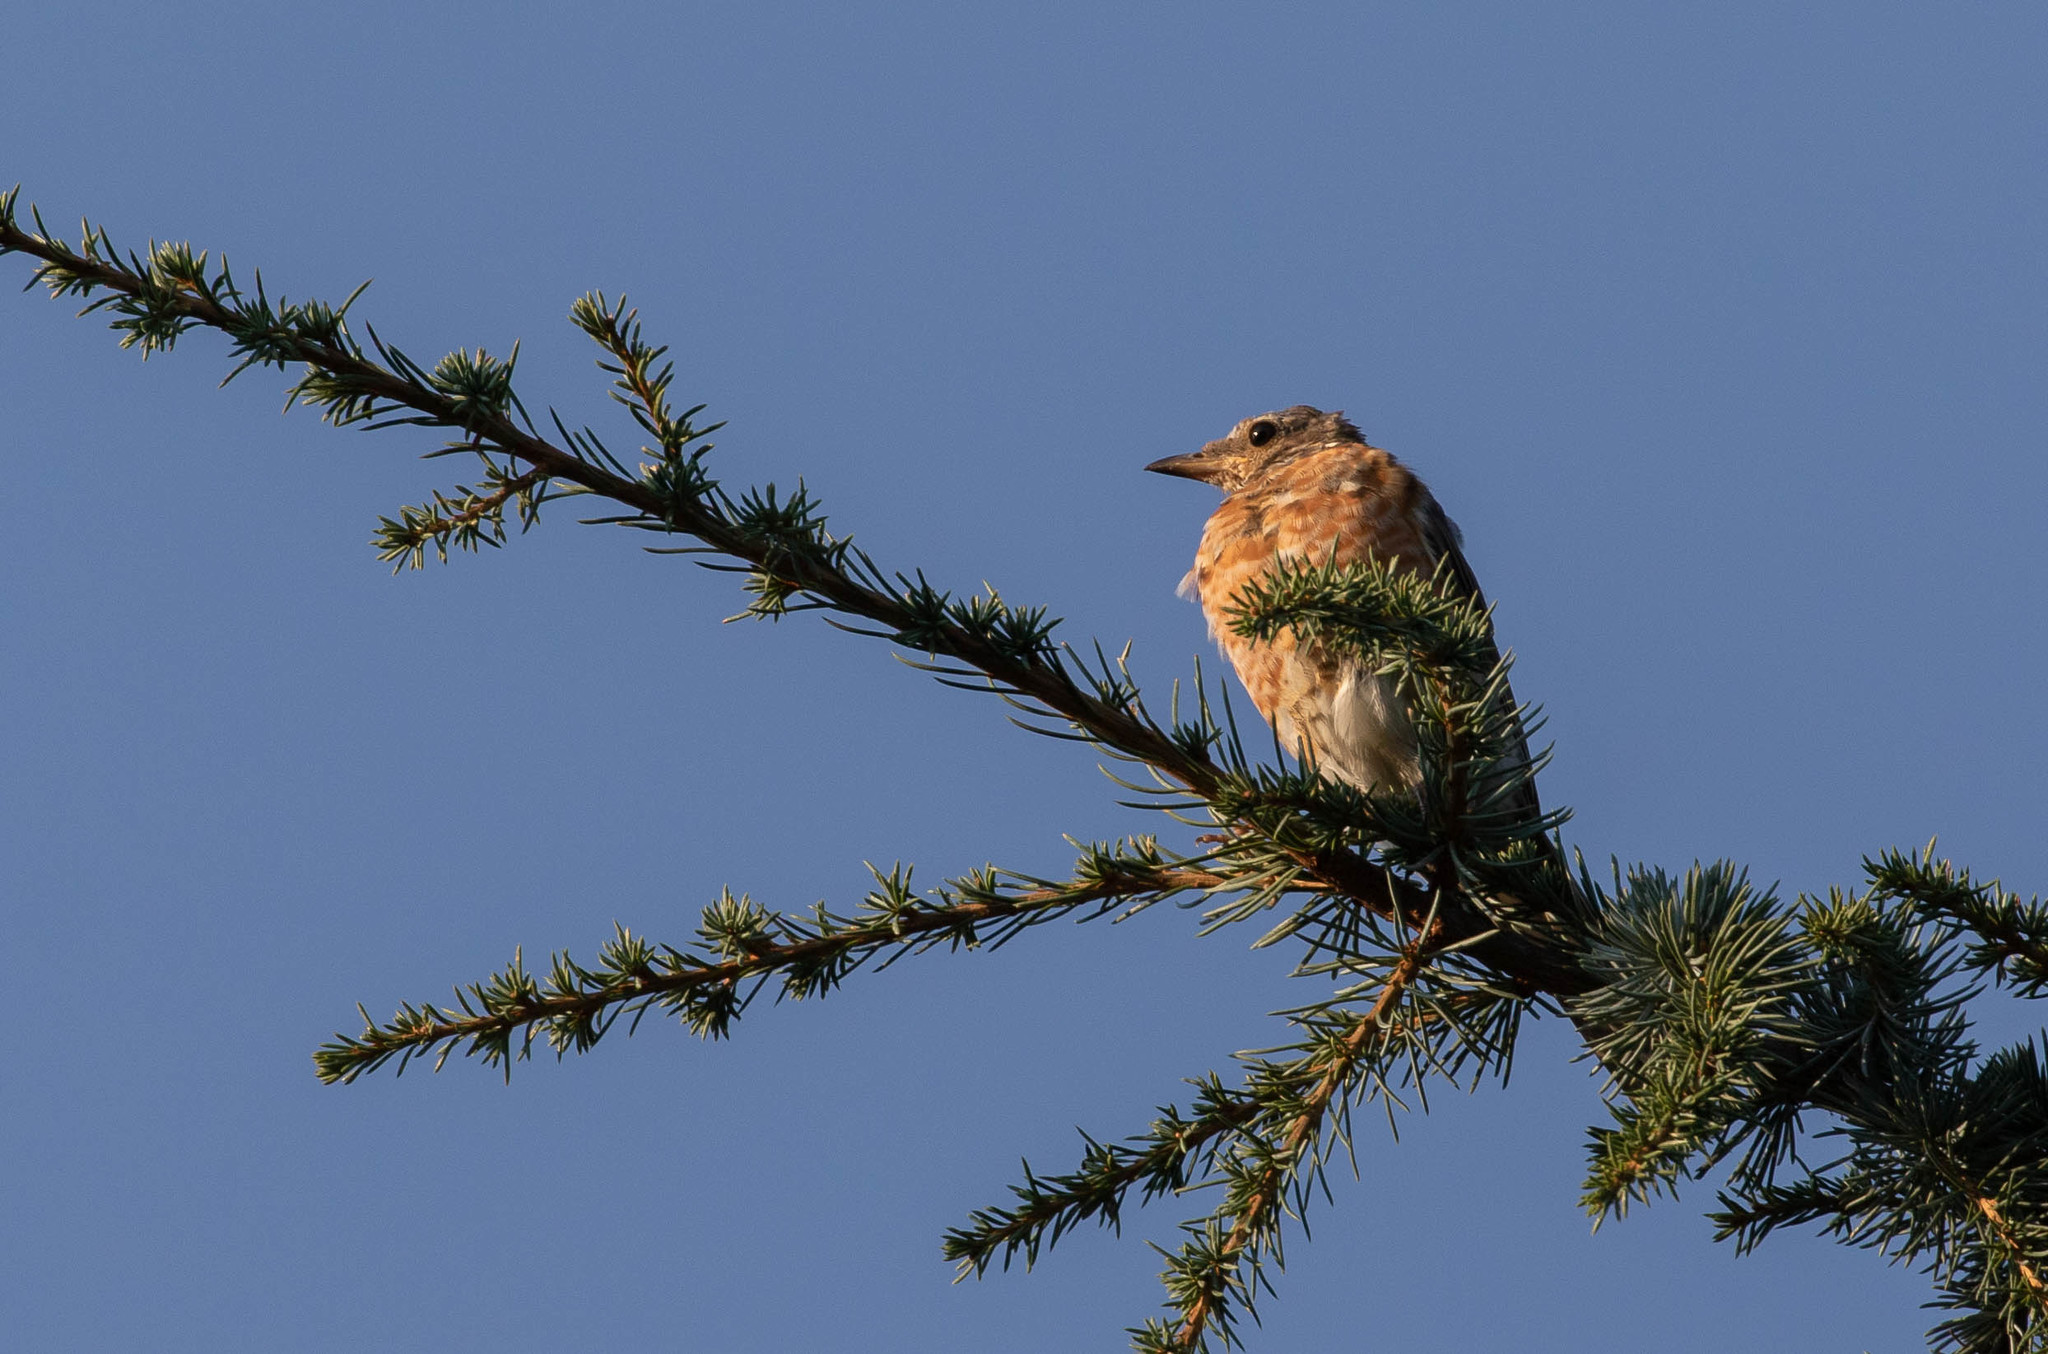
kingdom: Animalia
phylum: Chordata
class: Aves
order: Passeriformes
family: Turdidae
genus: Sialia
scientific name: Sialia sialis
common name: Eastern bluebird
